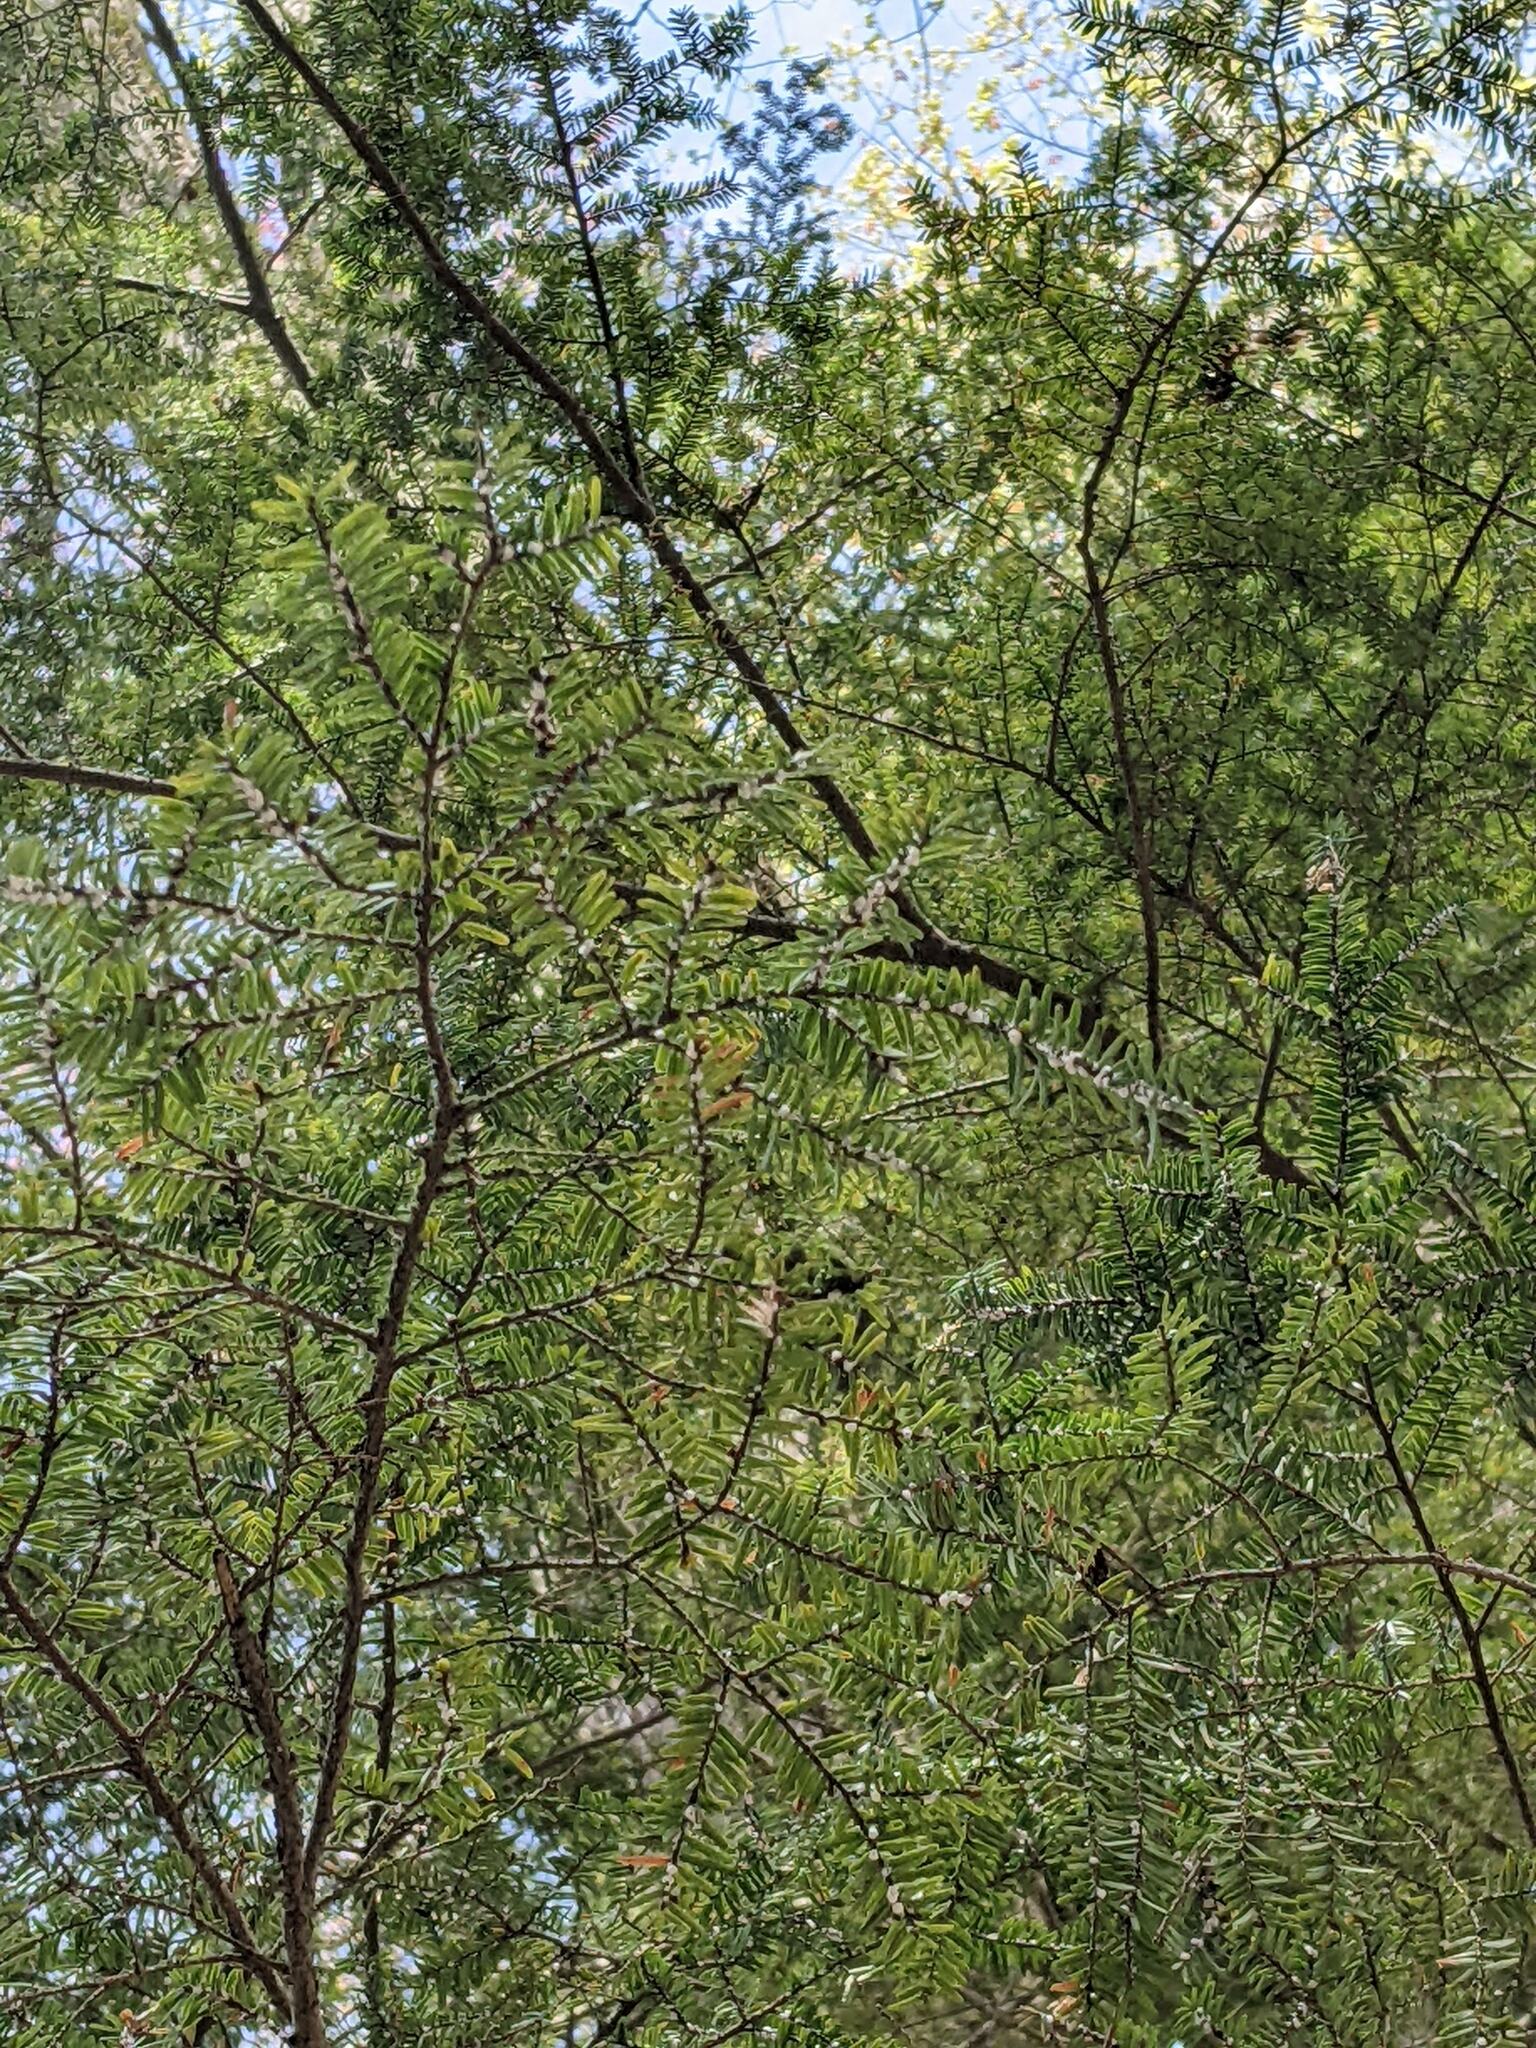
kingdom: Animalia
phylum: Arthropoda
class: Insecta
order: Hemiptera
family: Adelgidae
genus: Adelges
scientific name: Adelges tsugae
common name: Hemlock woolly adelgid
